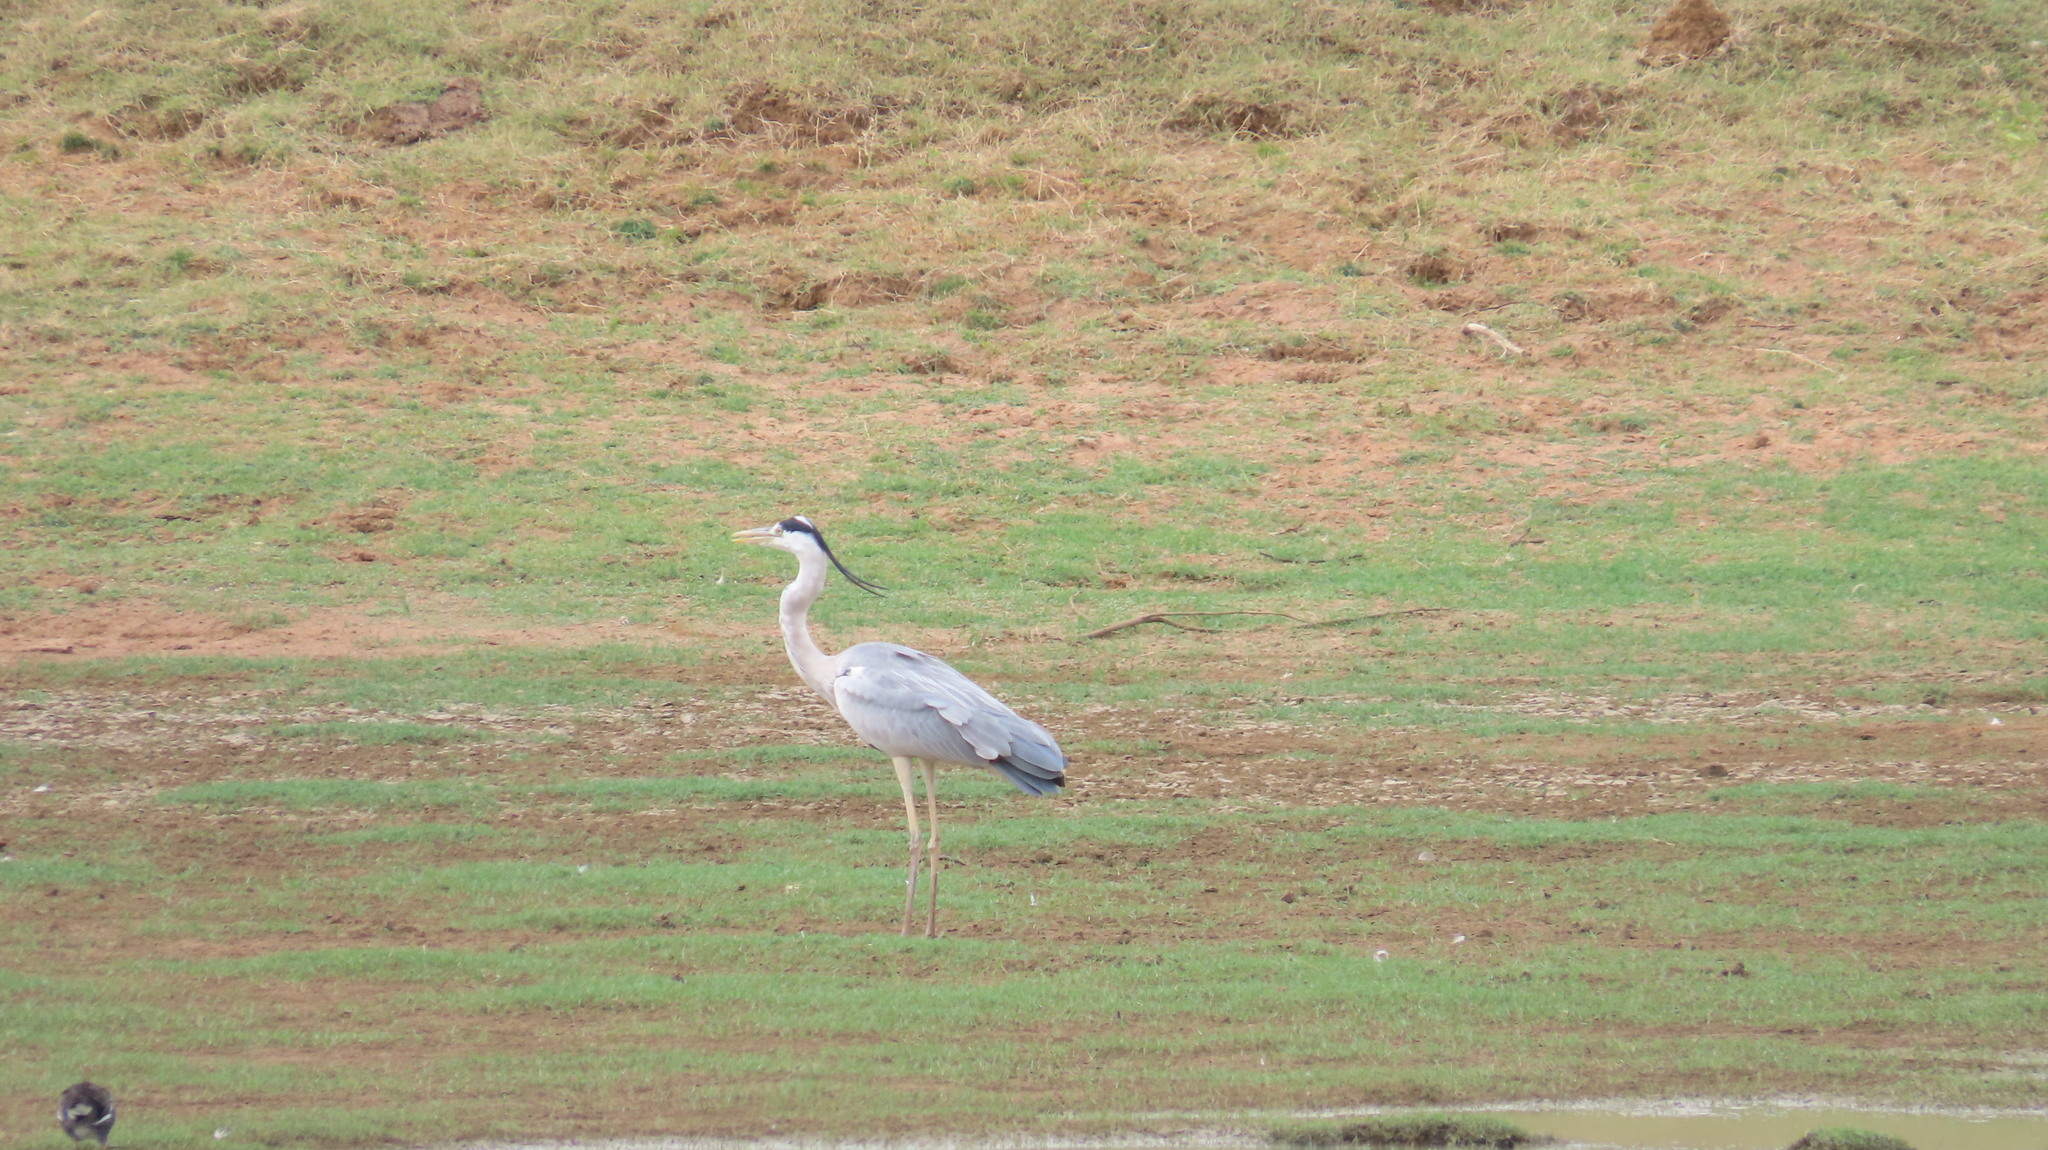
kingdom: Animalia
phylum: Chordata
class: Aves
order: Pelecaniformes
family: Ardeidae
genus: Ardea
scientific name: Ardea cinerea
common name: Grey heron
